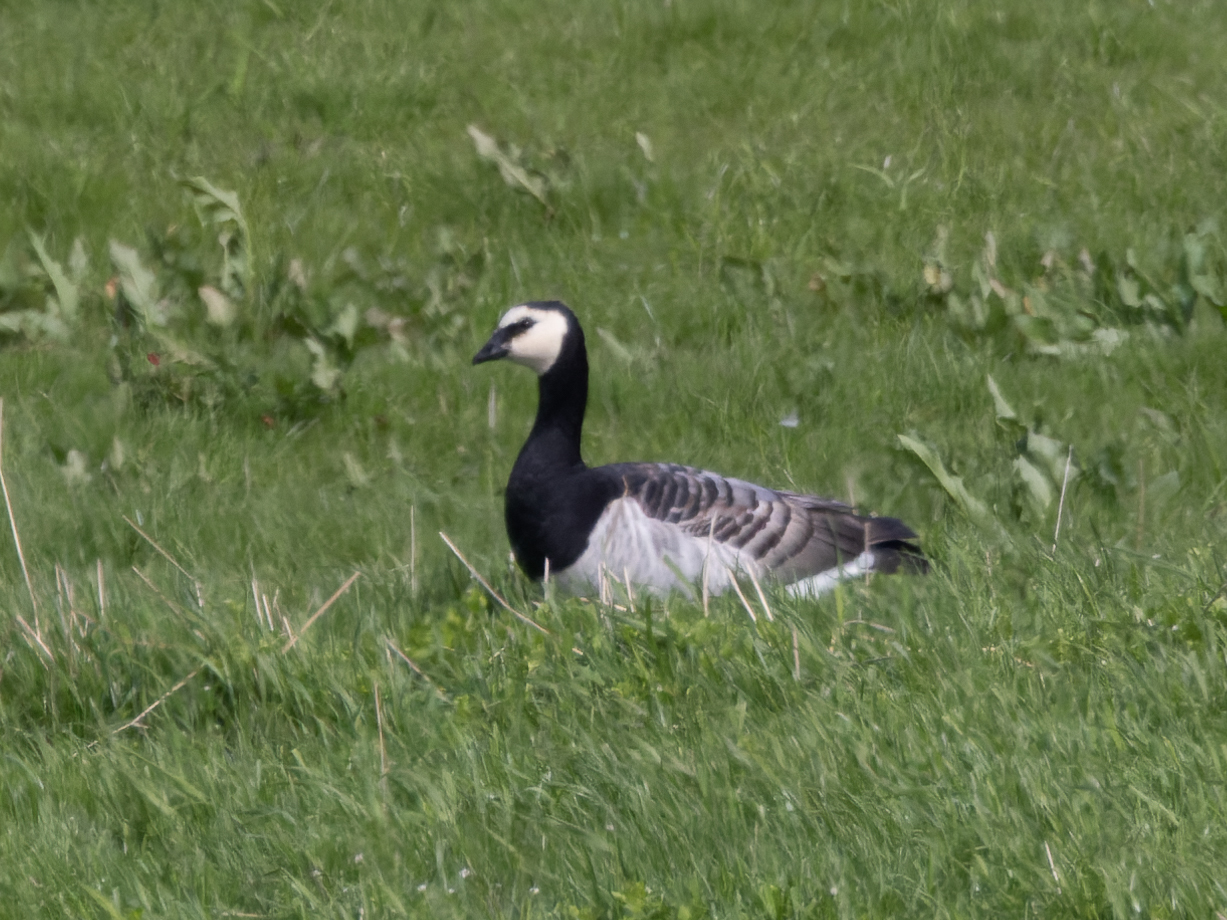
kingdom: Animalia
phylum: Chordata
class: Aves
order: Anseriformes
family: Anatidae
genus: Branta
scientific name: Branta leucopsis
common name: Barnacle goose
